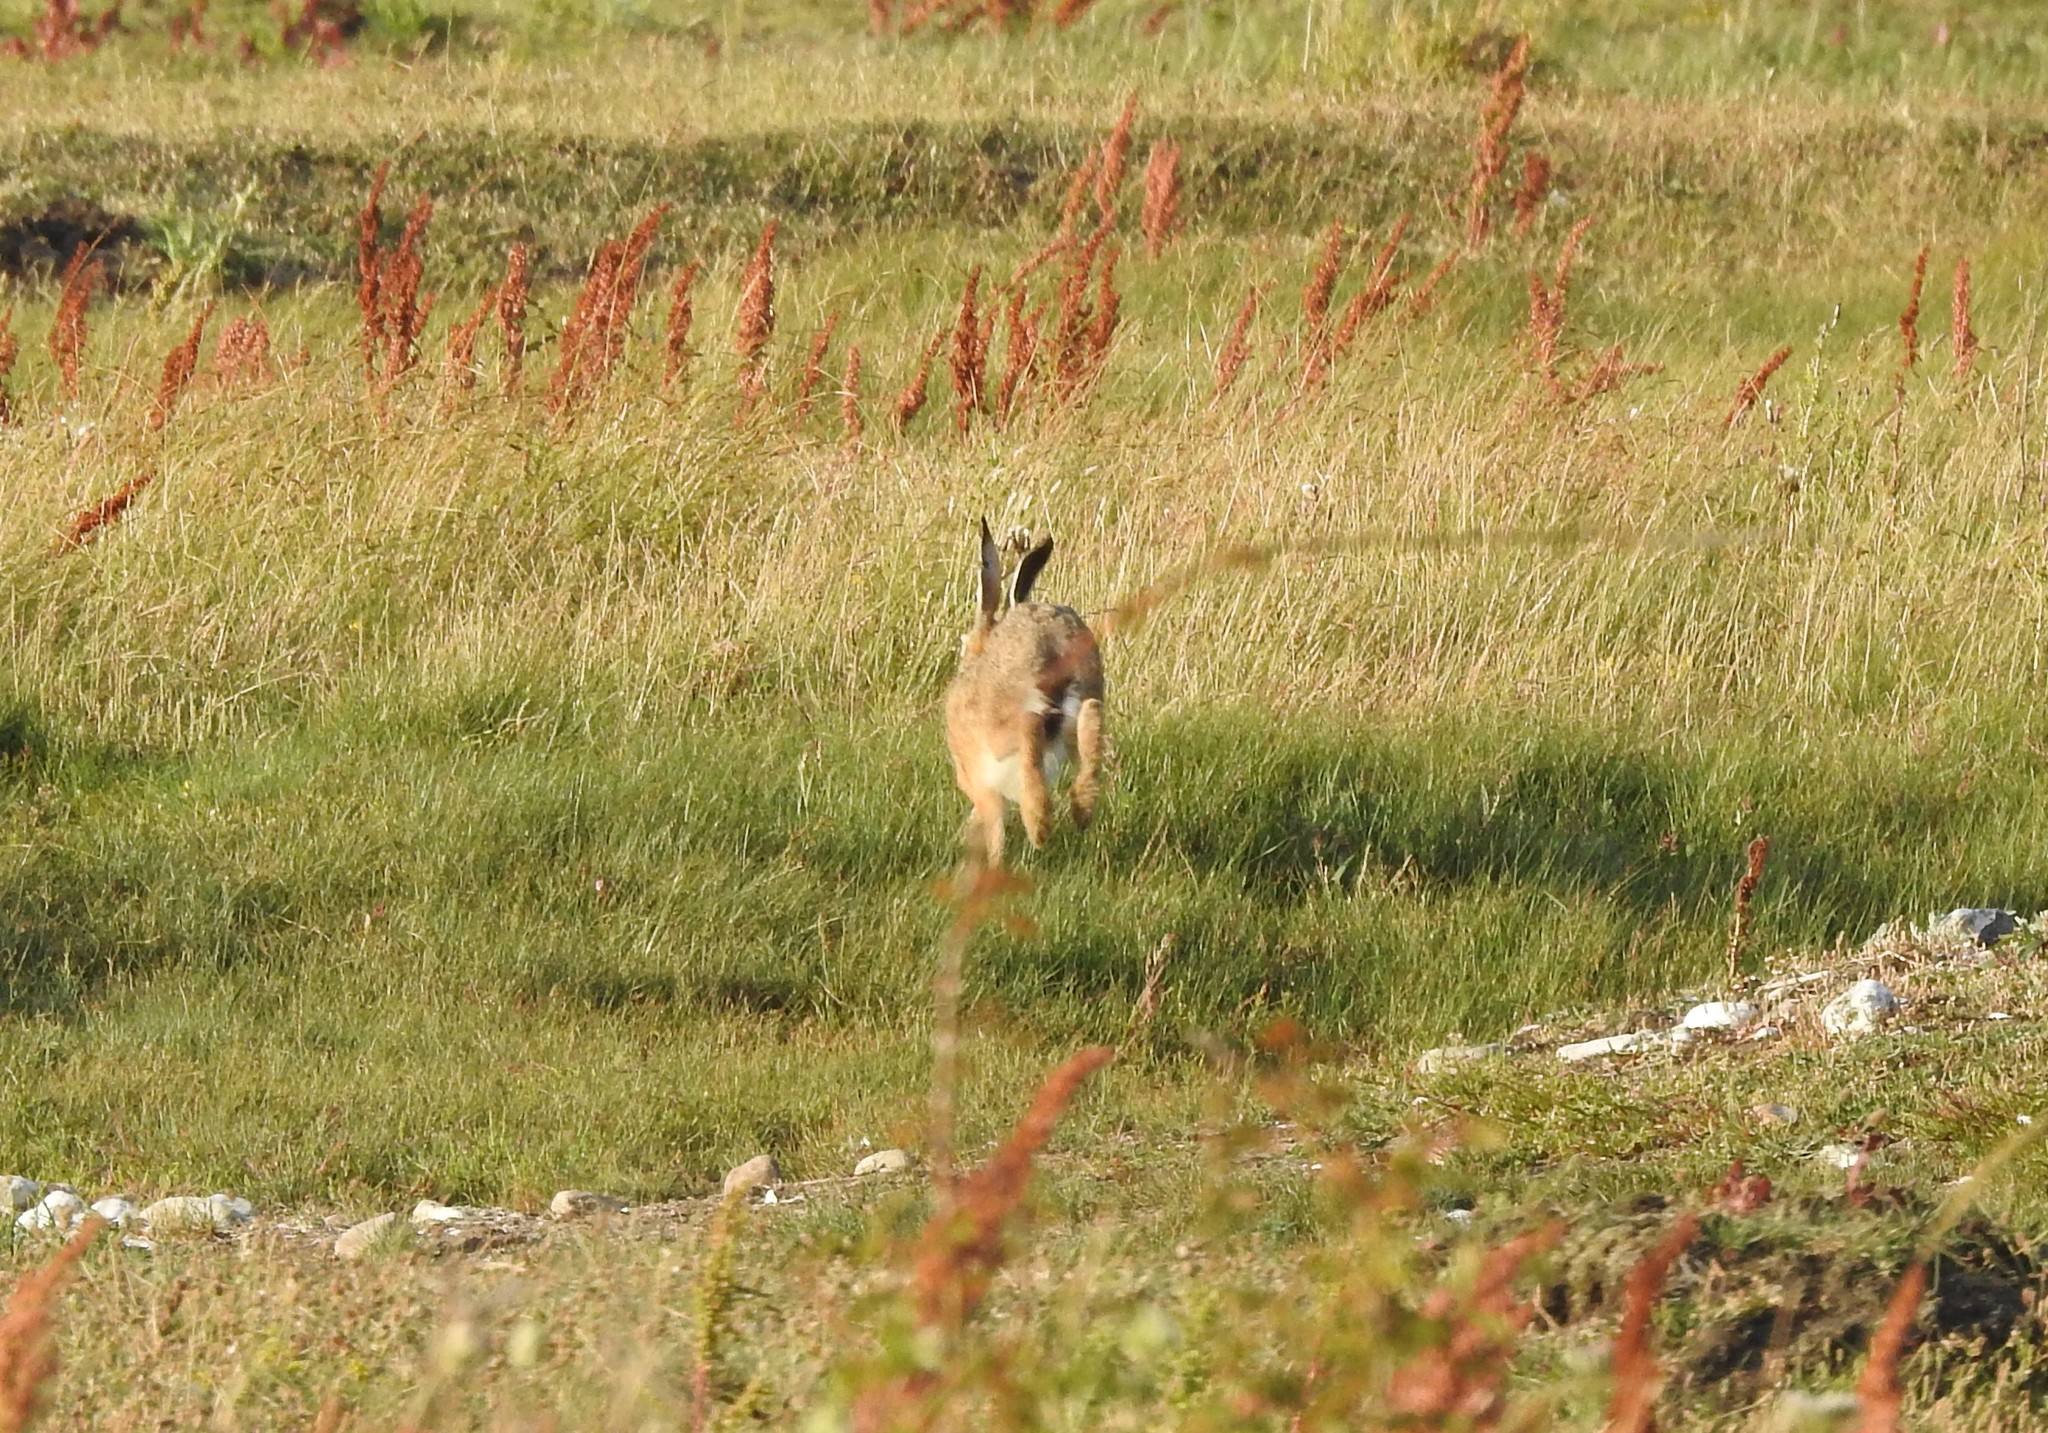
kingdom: Animalia
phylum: Chordata
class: Mammalia
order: Lagomorpha
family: Leporidae
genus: Lepus
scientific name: Lepus europaeus
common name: European hare
